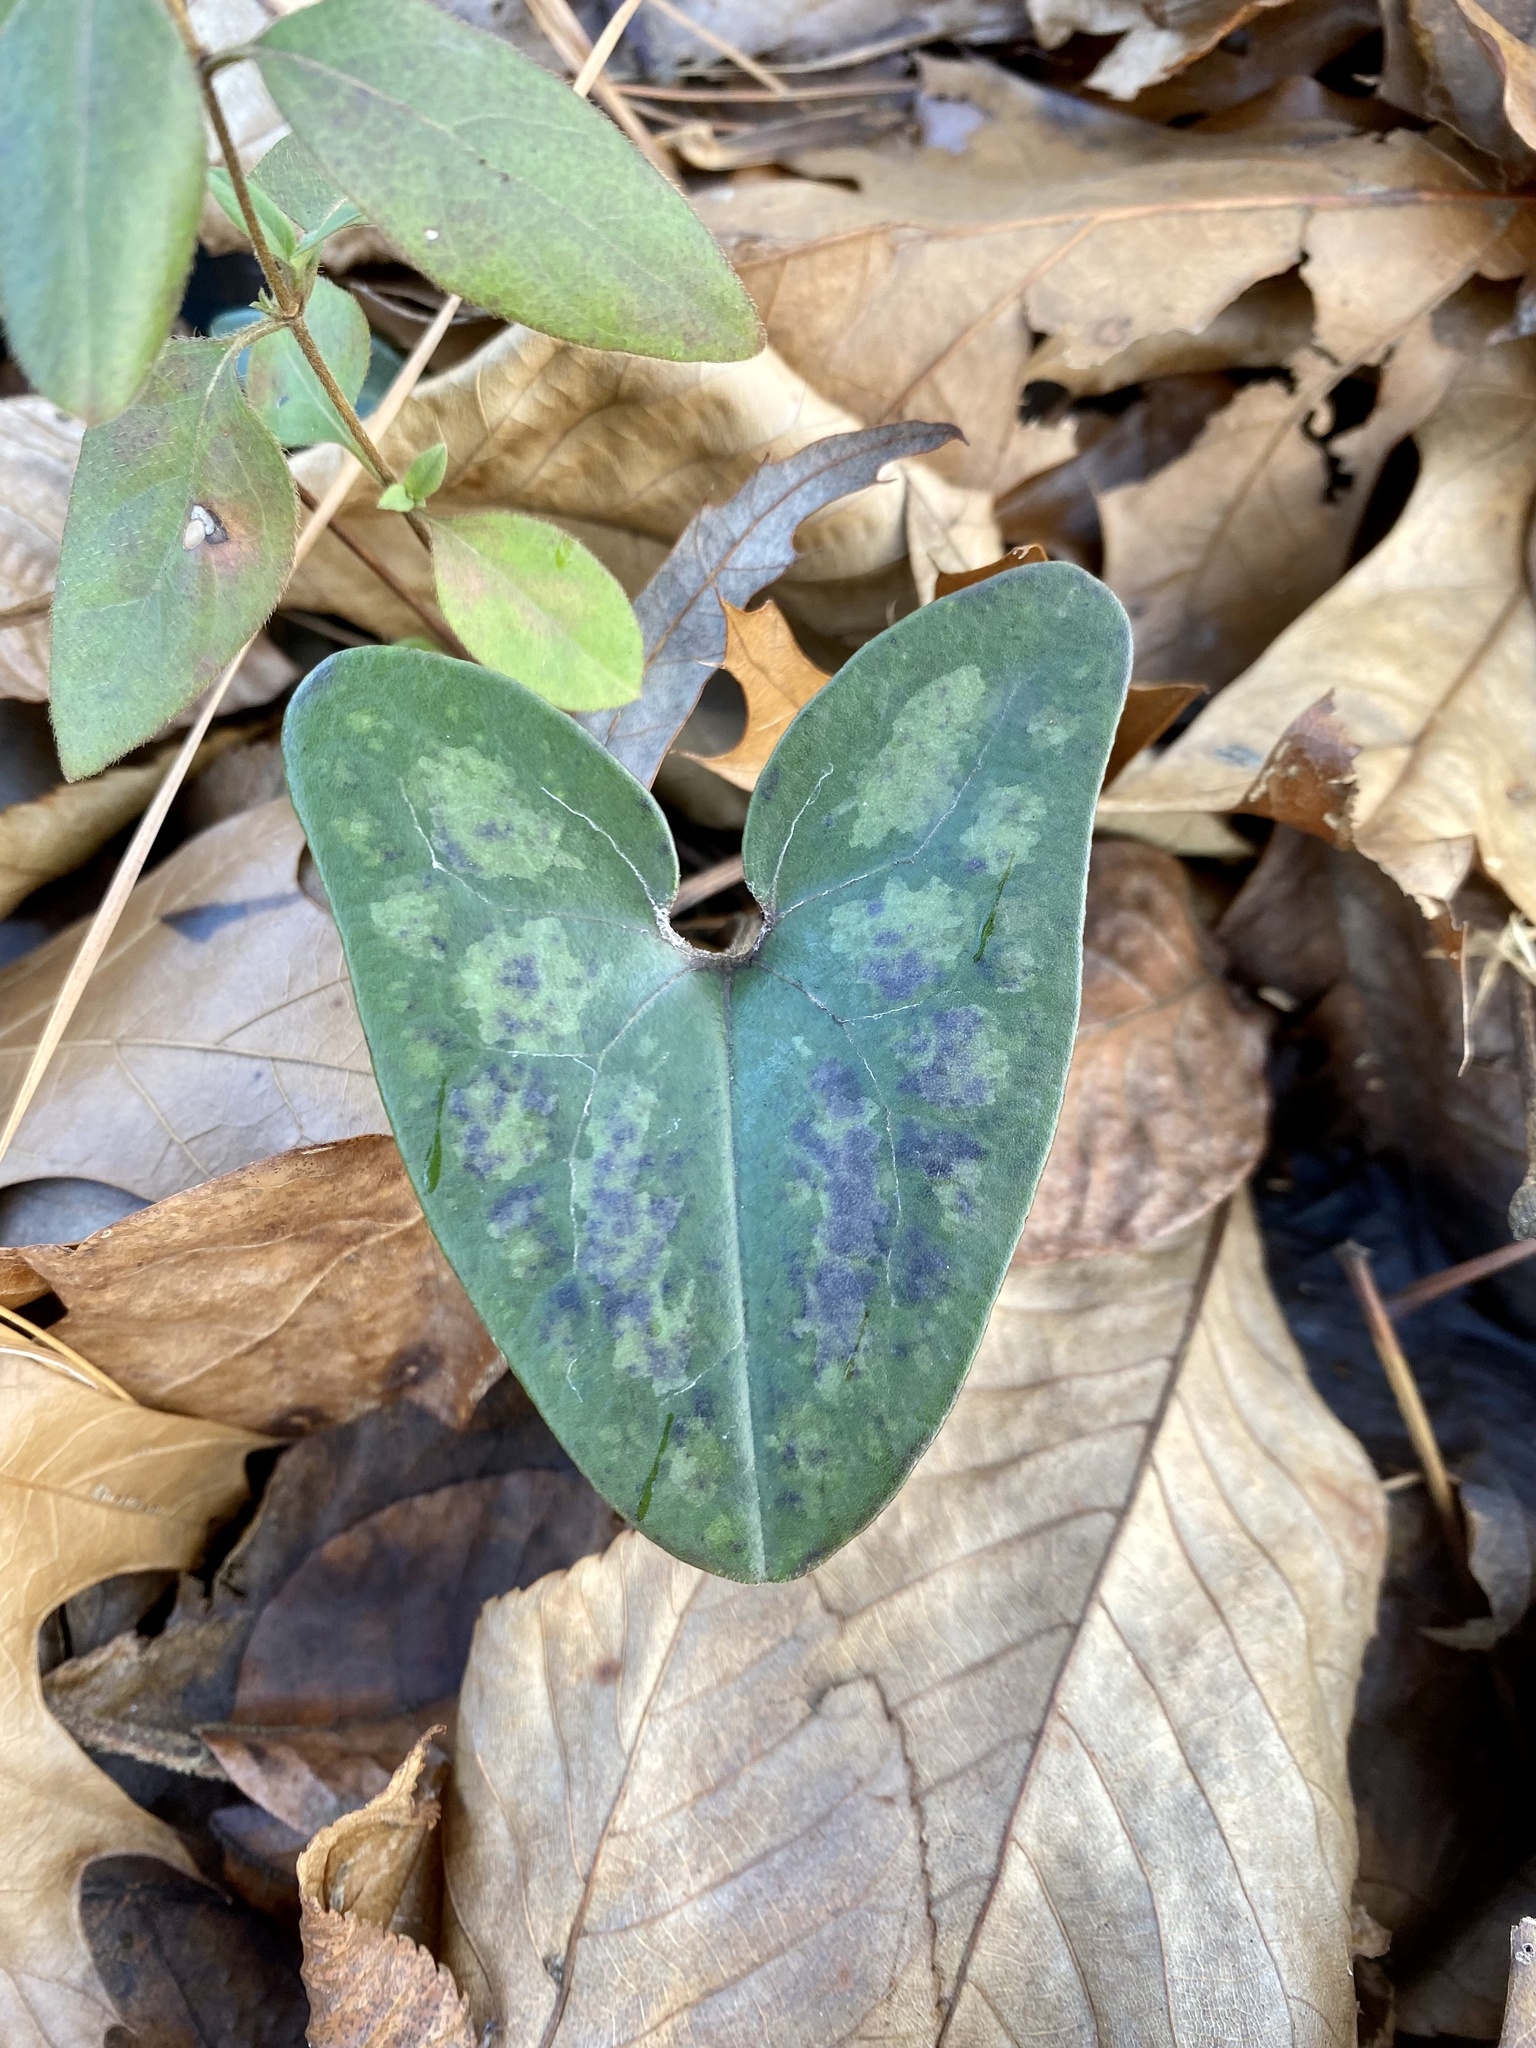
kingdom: Plantae
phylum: Tracheophyta
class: Magnoliopsida
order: Piperales
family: Aristolochiaceae
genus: Hexastylis
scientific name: Hexastylis arifolia
